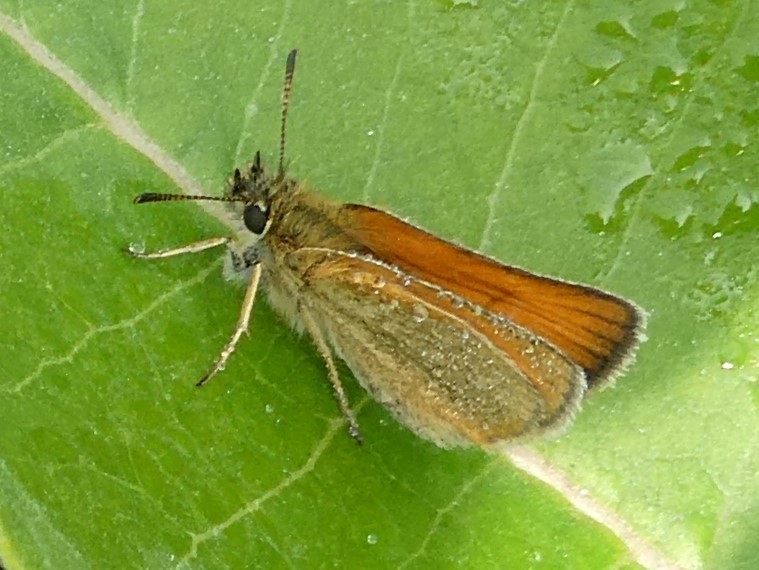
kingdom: Animalia
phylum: Arthropoda
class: Insecta
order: Lepidoptera
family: Hesperiidae
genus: Thymelicus
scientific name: Thymelicus lineola
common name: Essex skipper
